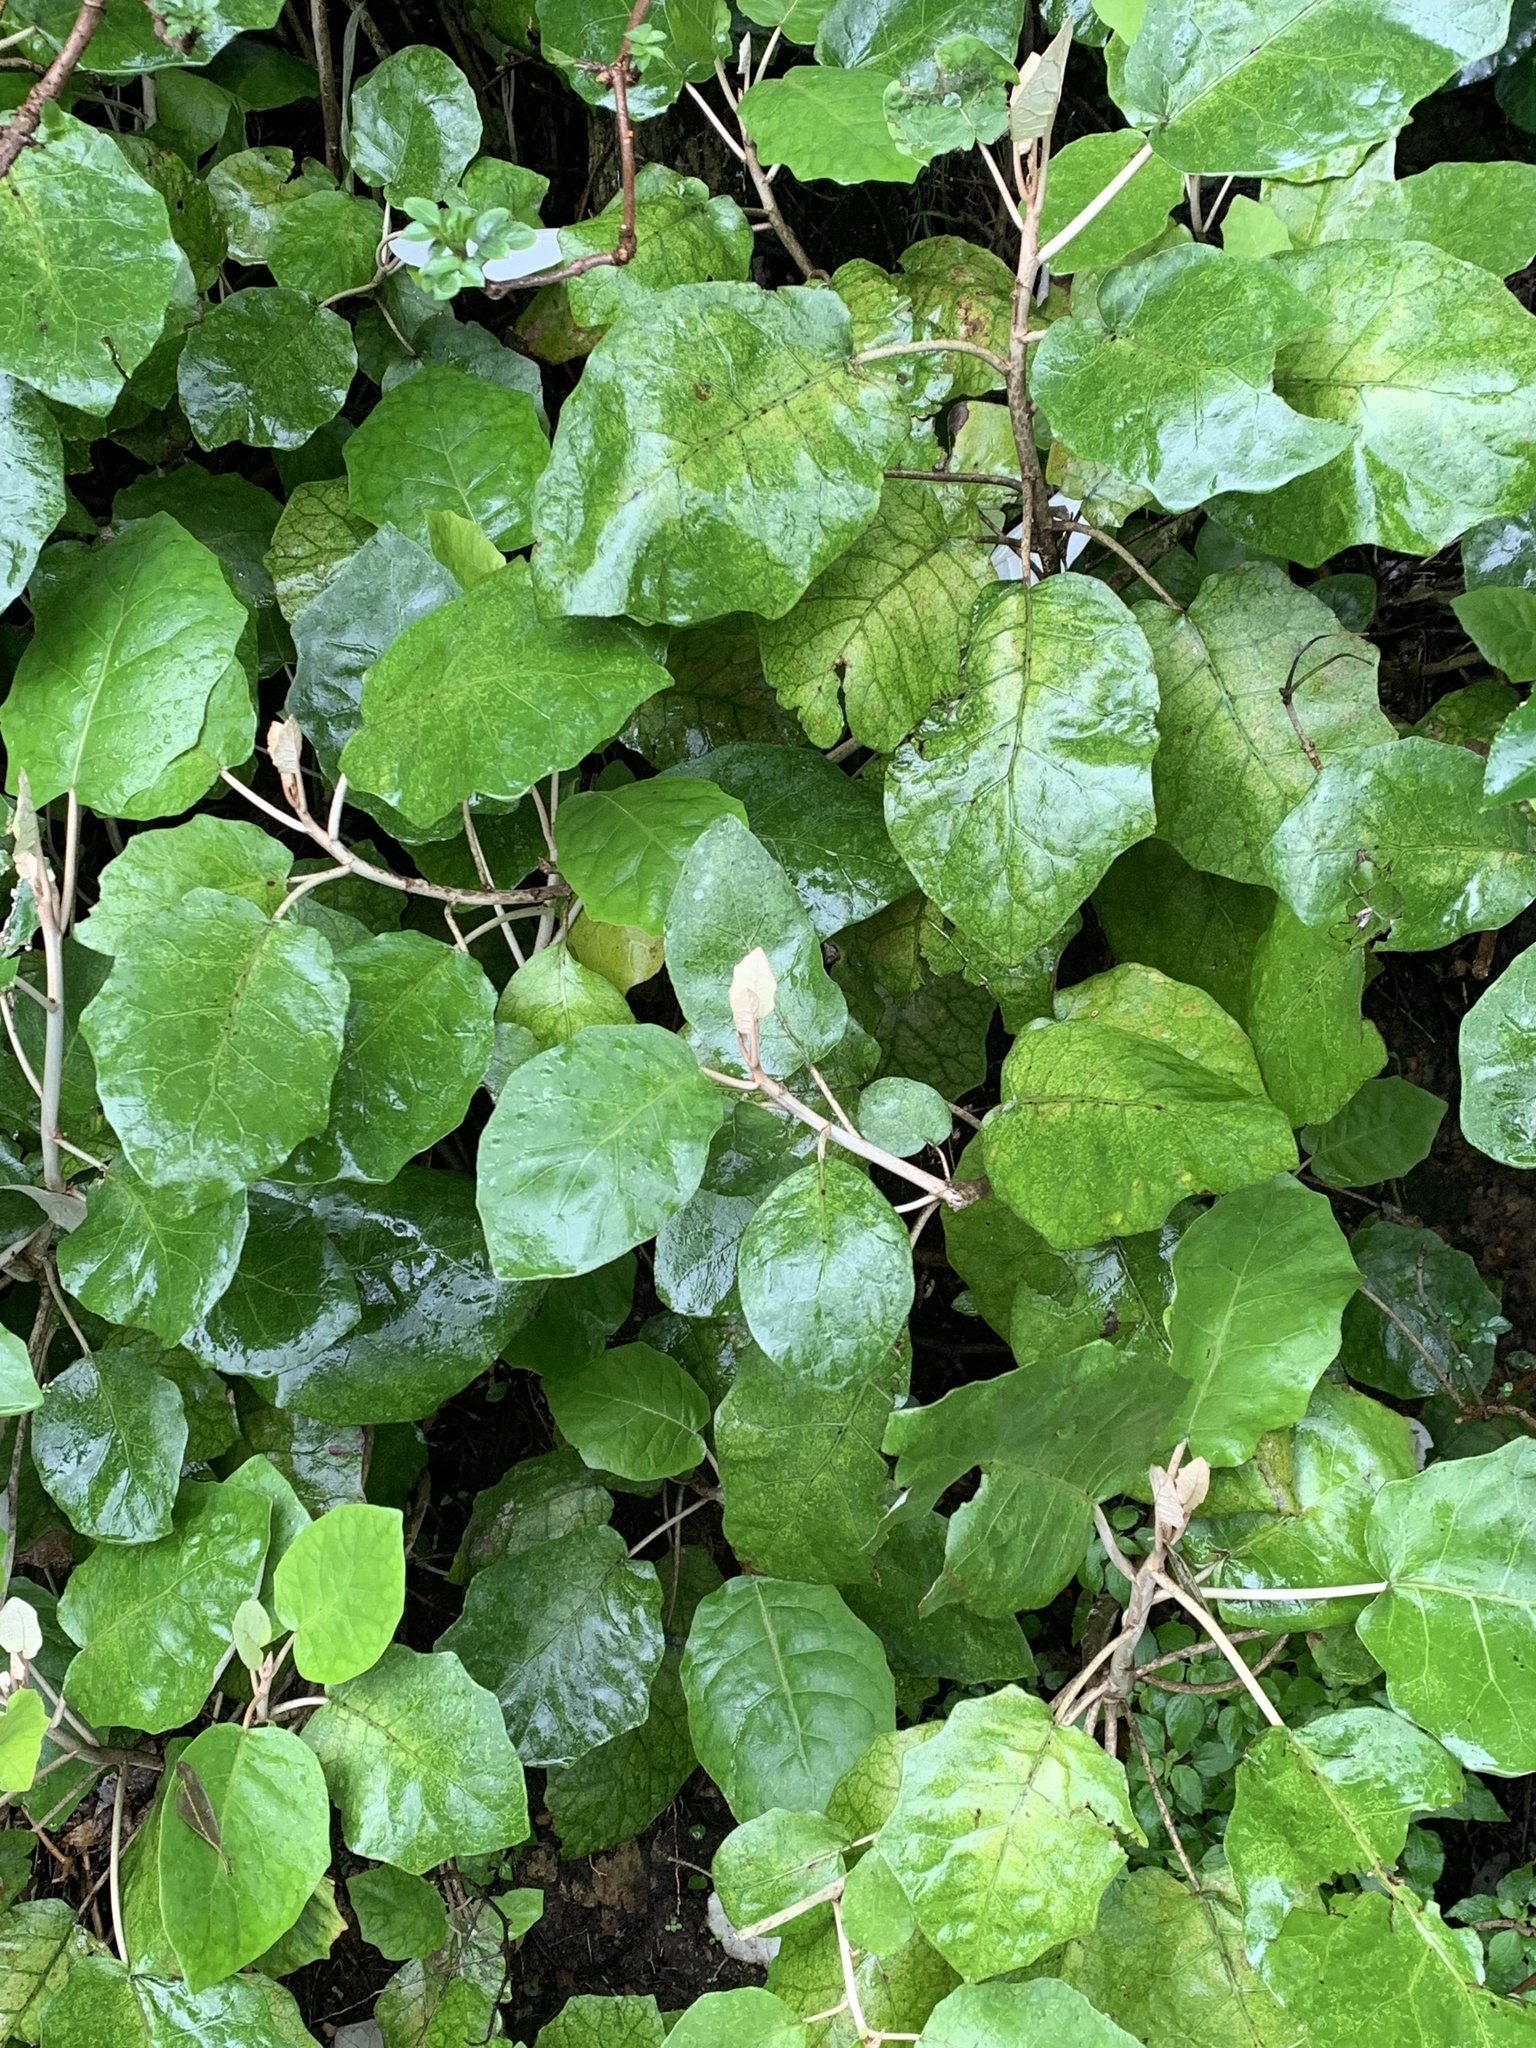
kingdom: Plantae
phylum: Tracheophyta
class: Magnoliopsida
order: Asterales
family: Asteraceae
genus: Brachyglottis
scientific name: Brachyglottis repanda
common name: Hedge ragwort
